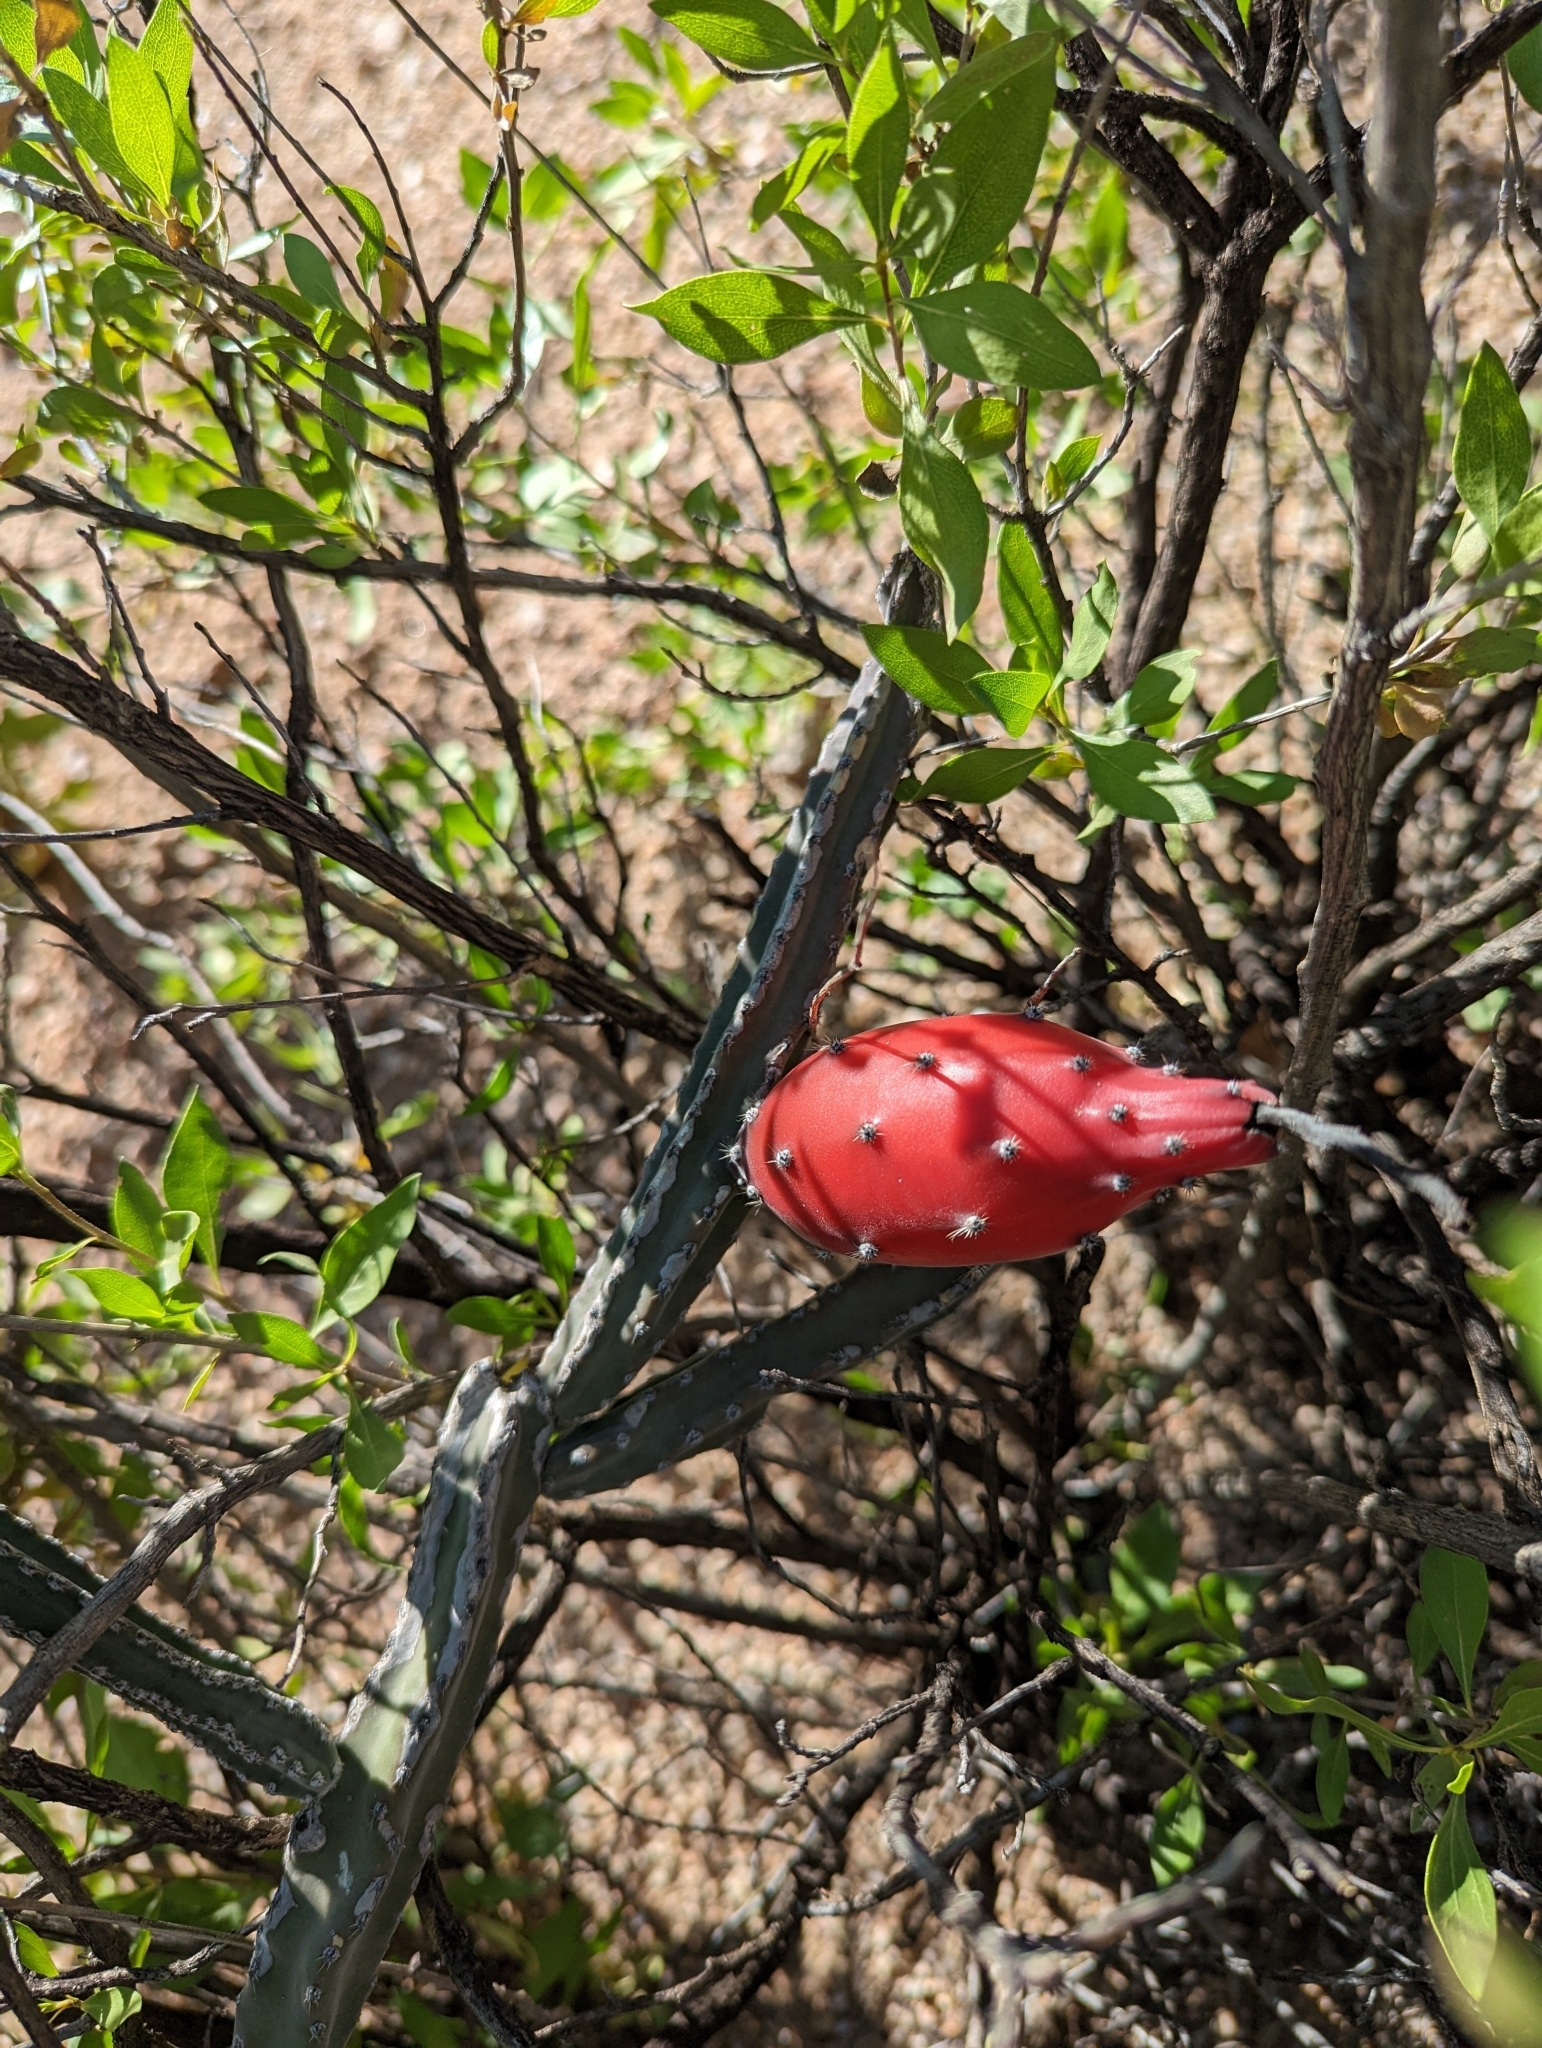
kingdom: Plantae
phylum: Tracheophyta
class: Magnoliopsida
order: Caryophyllales
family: Cactaceae
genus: Peniocereus
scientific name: Peniocereus greggii
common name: Desert night-blooming cereus
